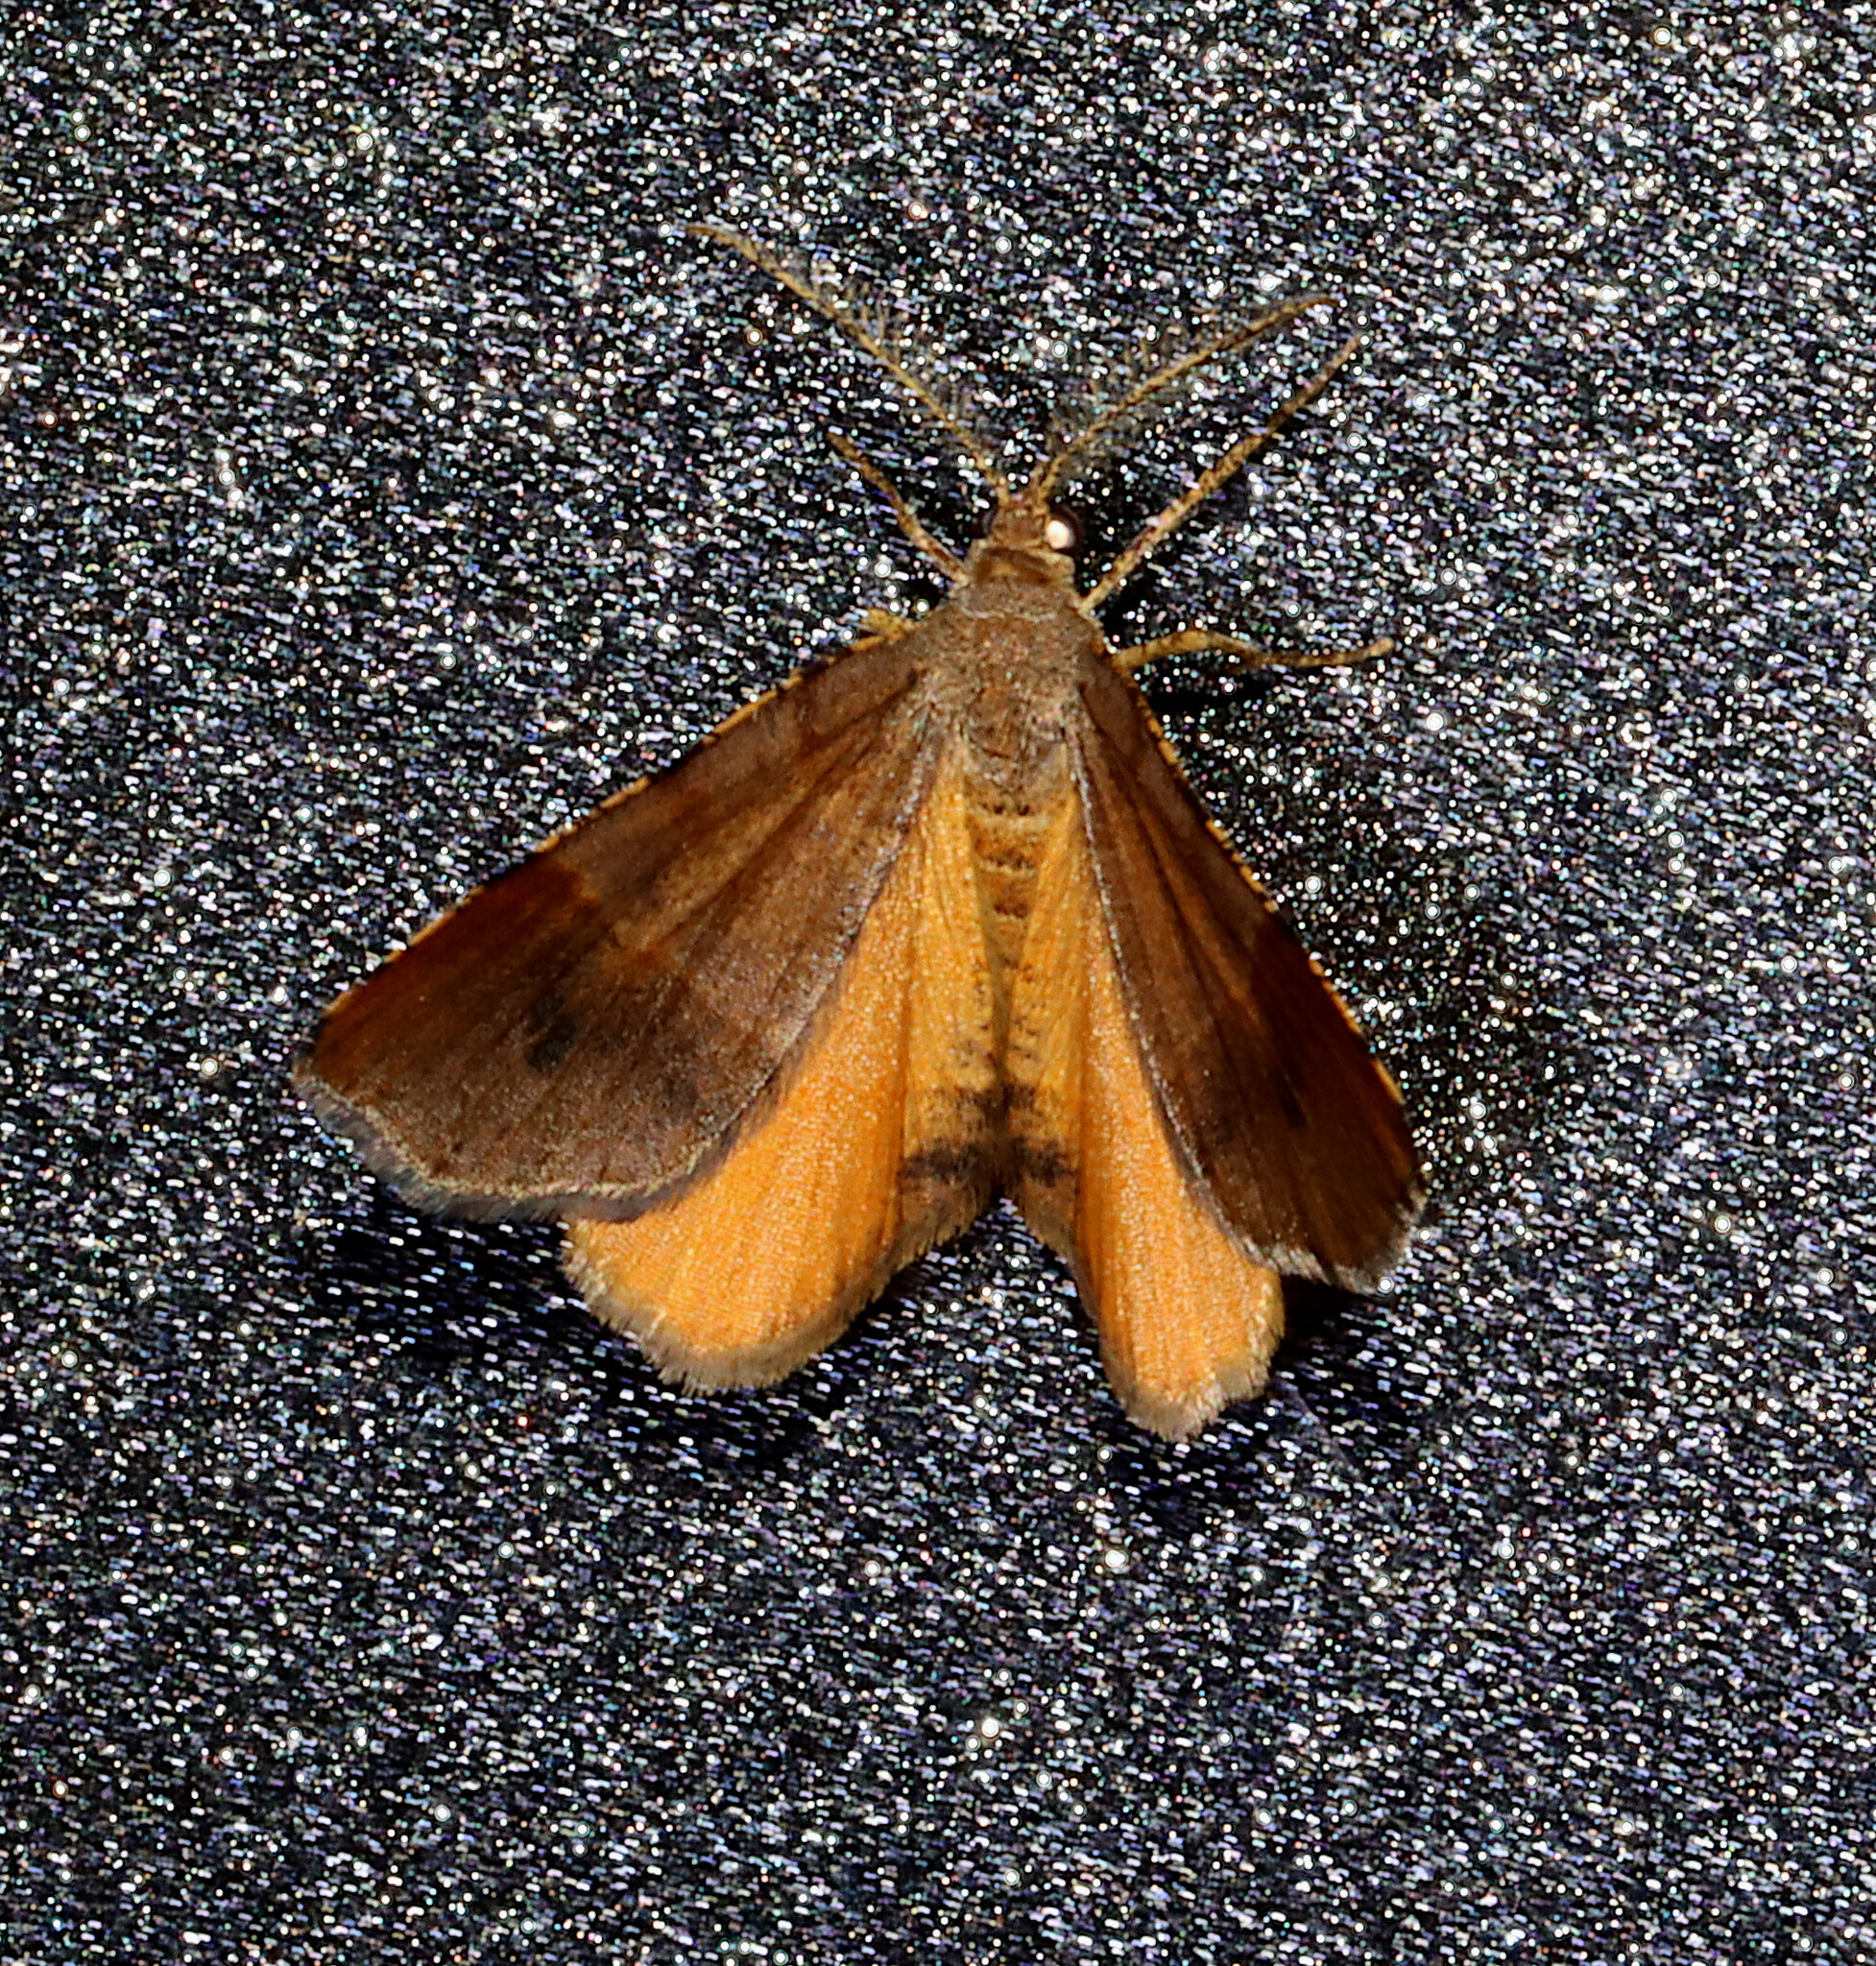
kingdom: Animalia
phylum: Arthropoda
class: Insecta
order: Lepidoptera
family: Geometridae
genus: Mellilla
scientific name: Mellilla xanthometata
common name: Orange wing moth
